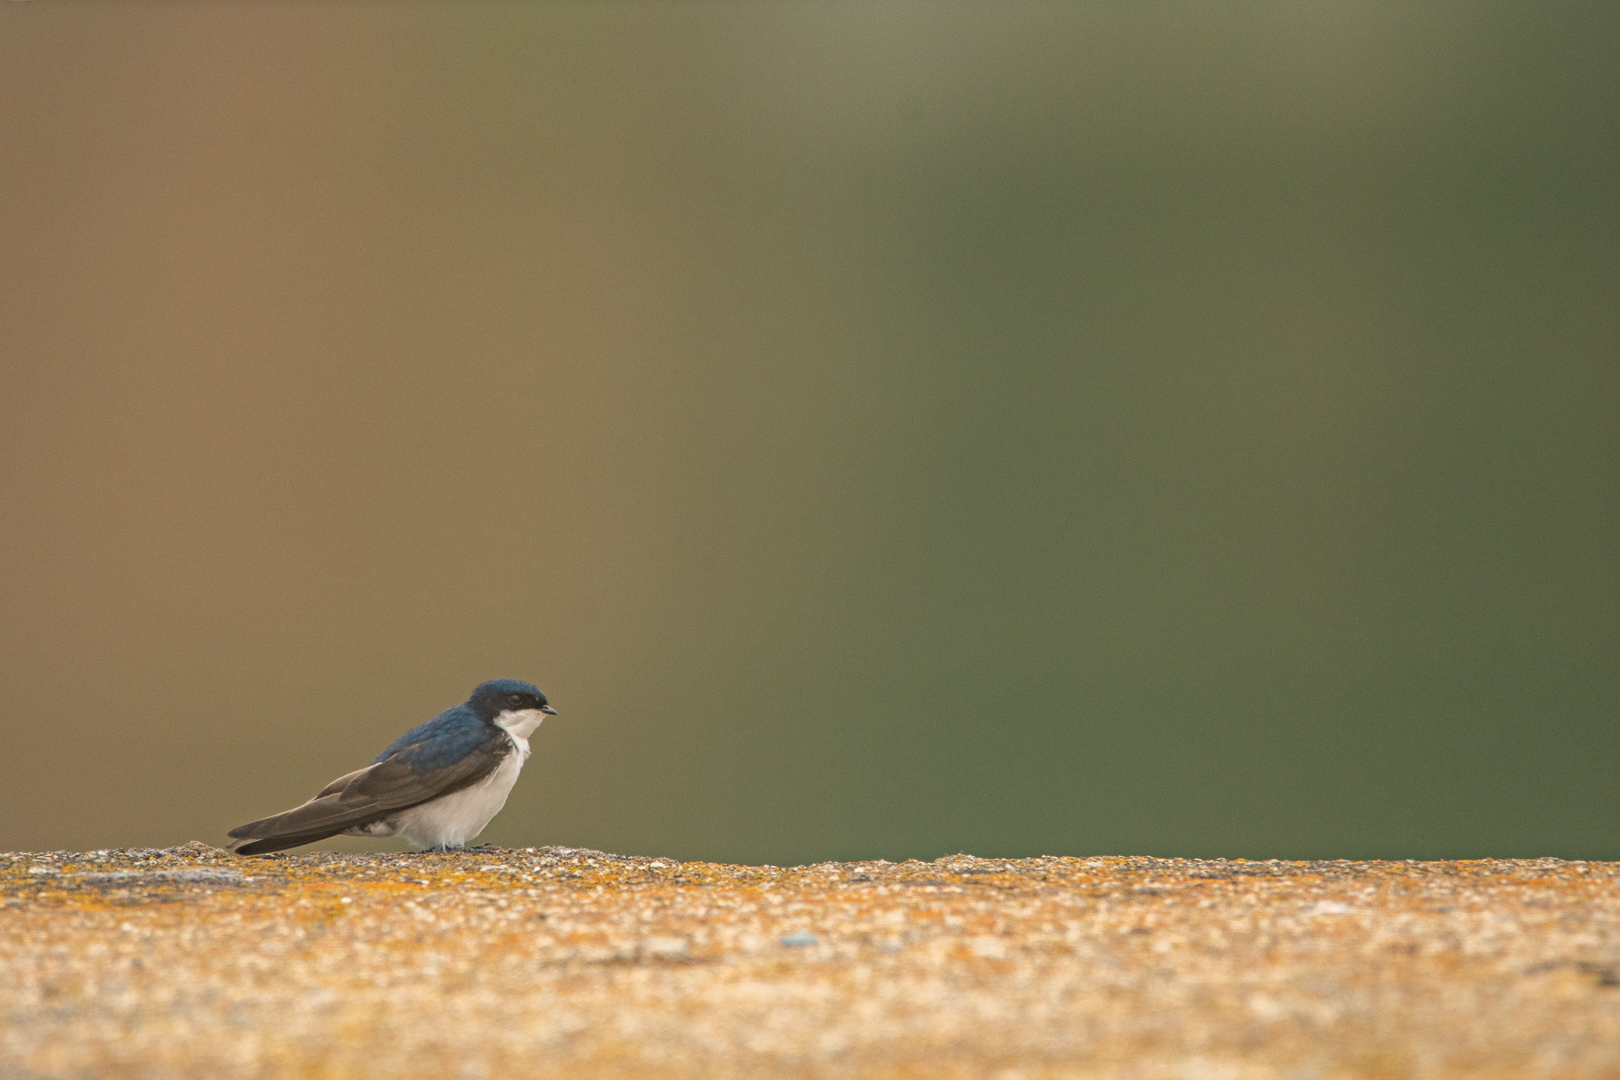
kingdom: Animalia
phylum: Chordata
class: Aves
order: Passeriformes
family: Hirundinidae
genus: Notiochelidon
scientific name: Notiochelidon cyanoleuca
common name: Blue-and-white swallow
